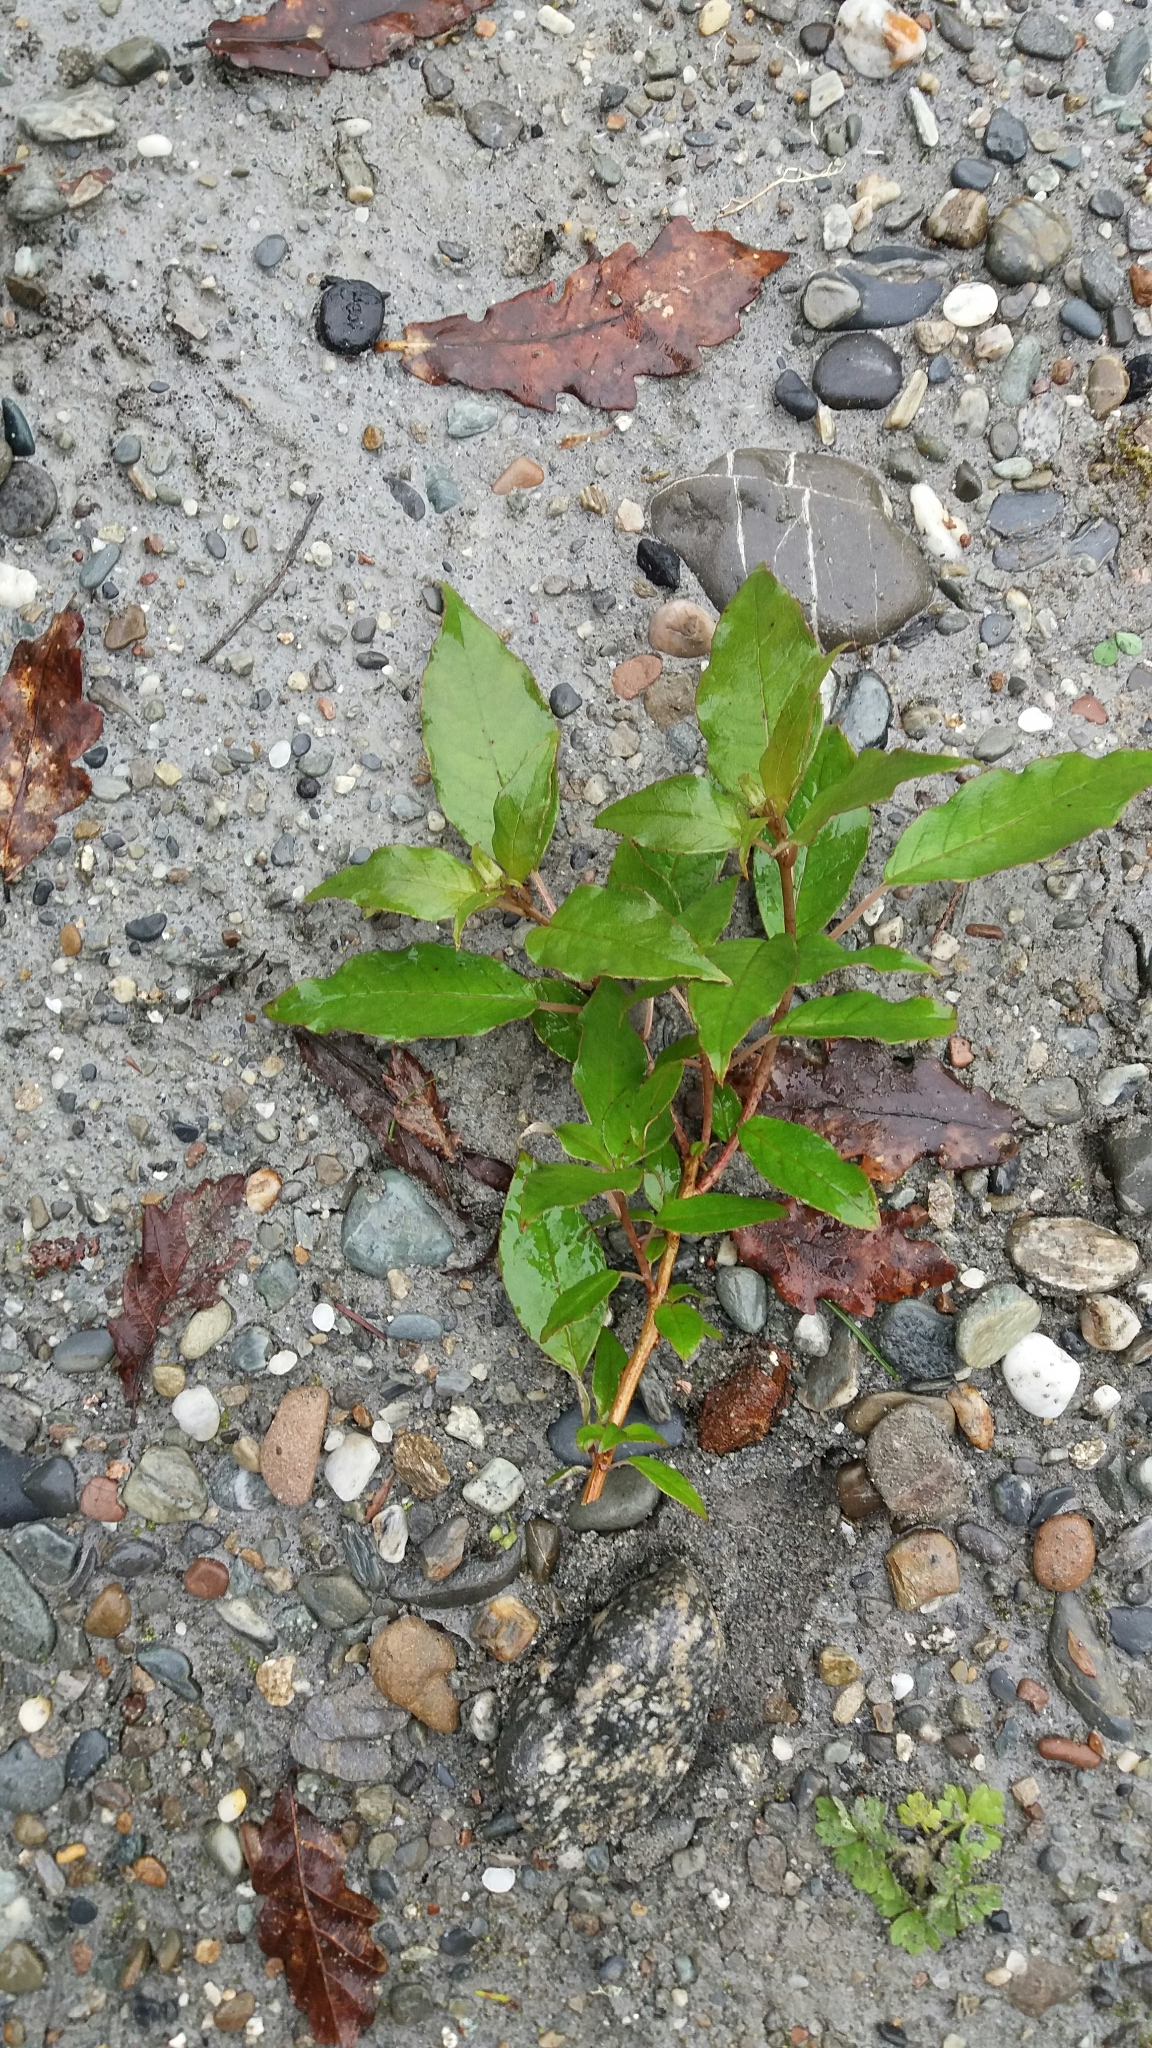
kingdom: Plantae
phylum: Tracheophyta
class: Magnoliopsida
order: Myrtales
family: Onagraceae
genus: Fuchsia
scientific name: Fuchsia excorticata
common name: Tree fuchsia
